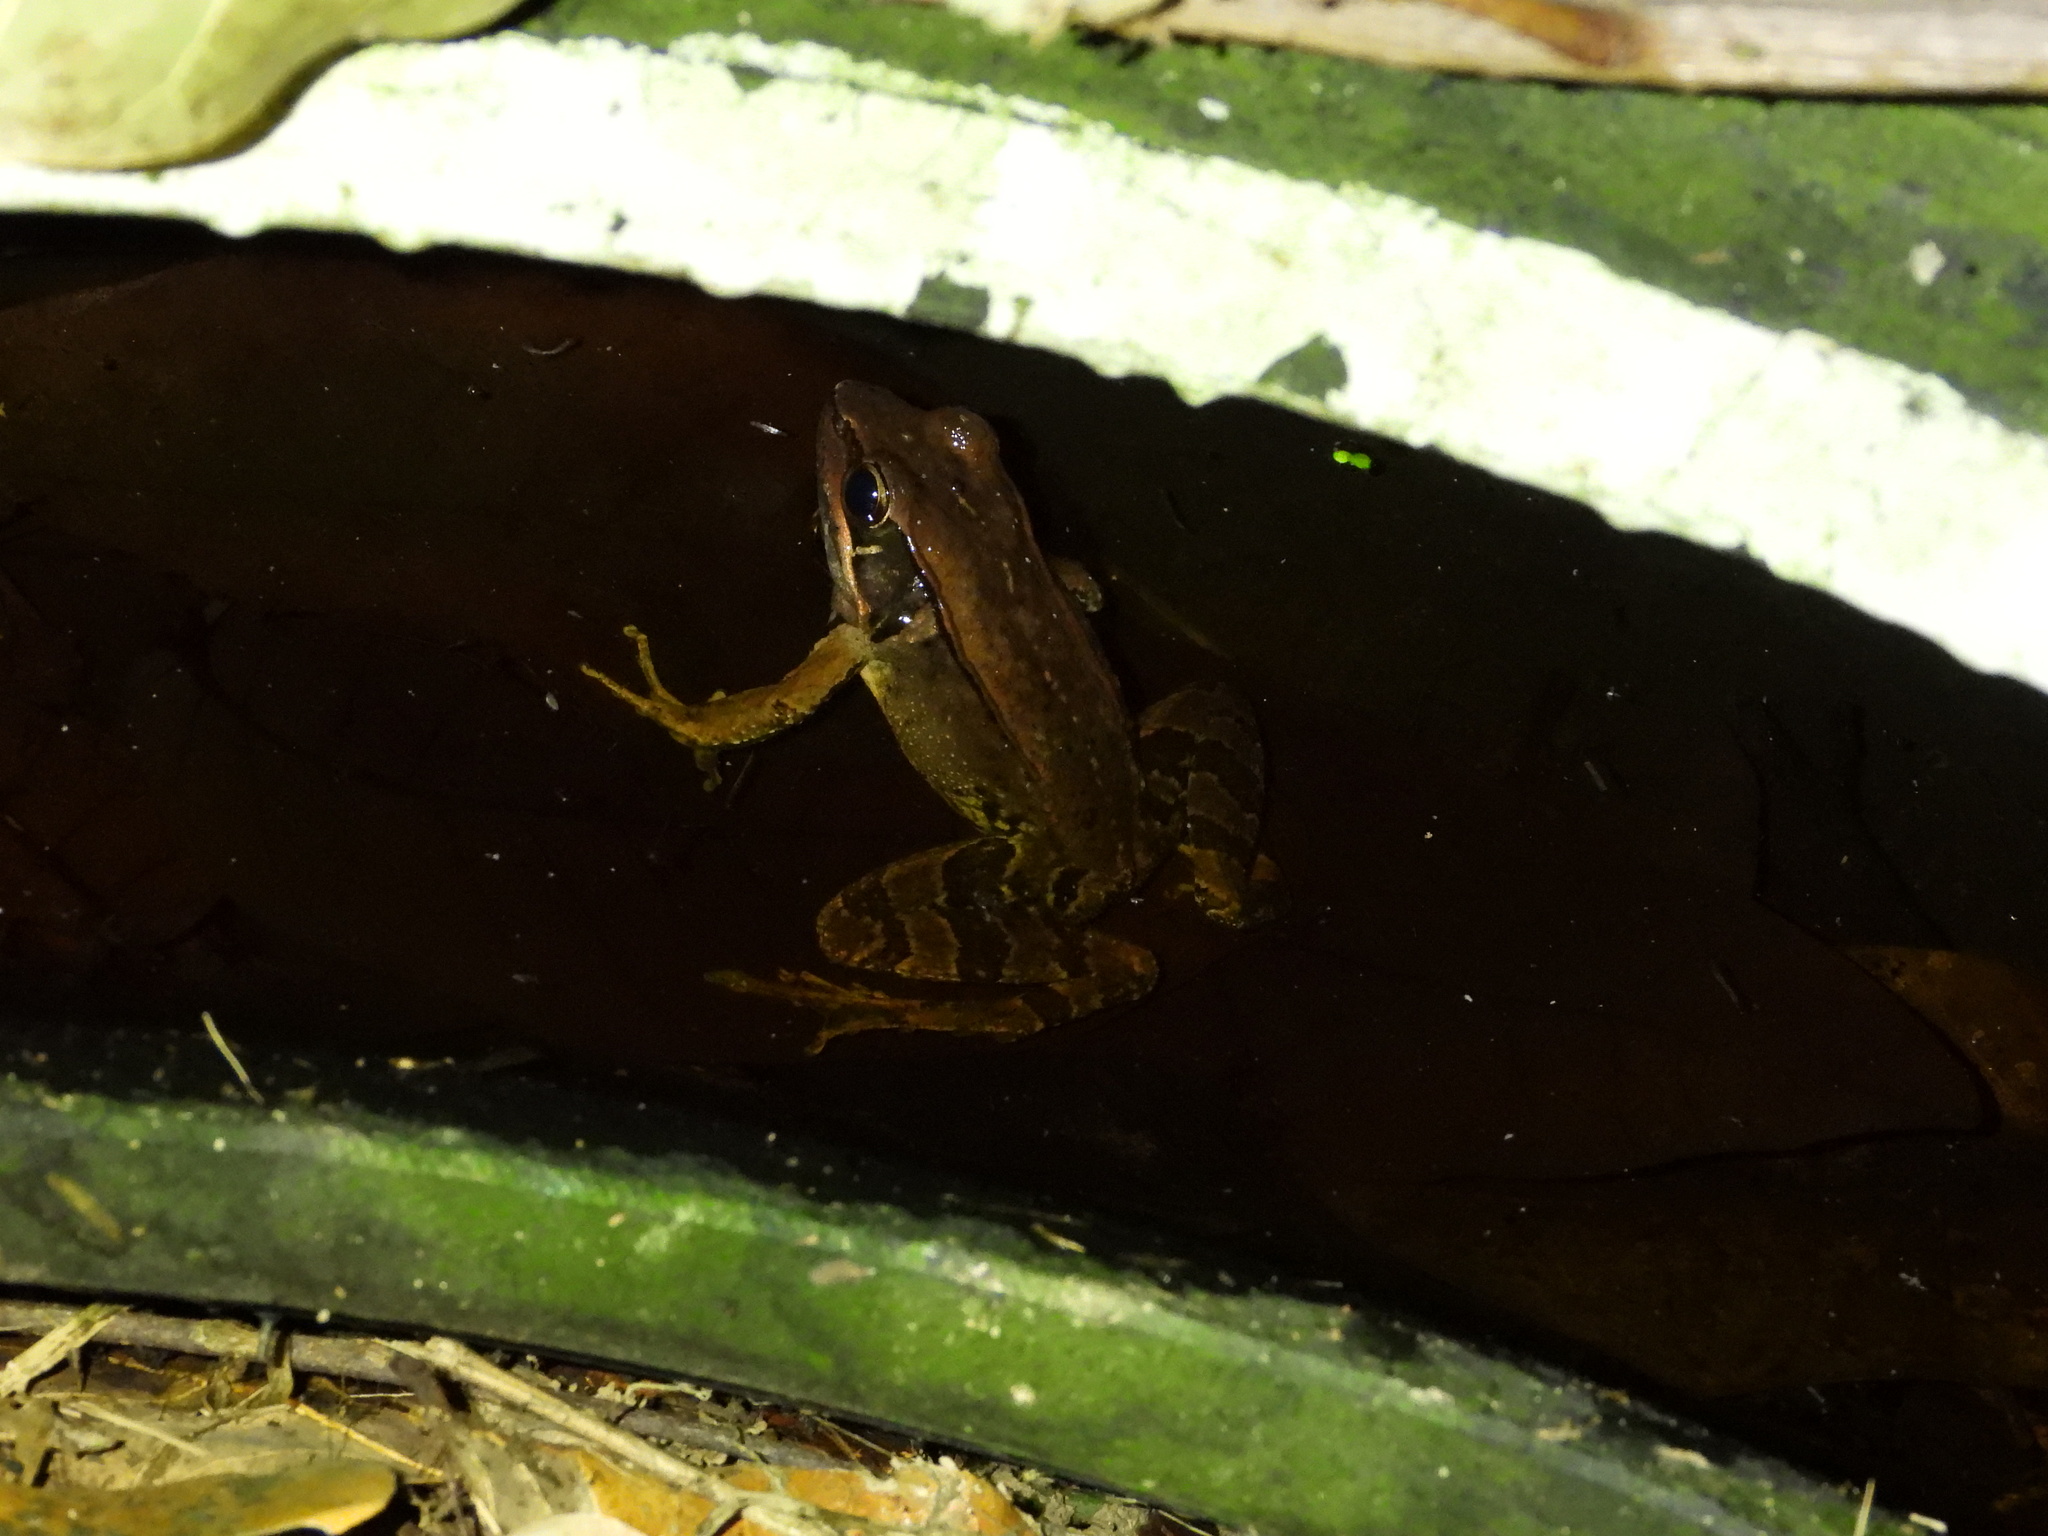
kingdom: Animalia
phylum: Chordata
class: Amphibia
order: Anura
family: Ranidae
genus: Nidirana
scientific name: Nidirana adenopleura
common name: Olive frog
